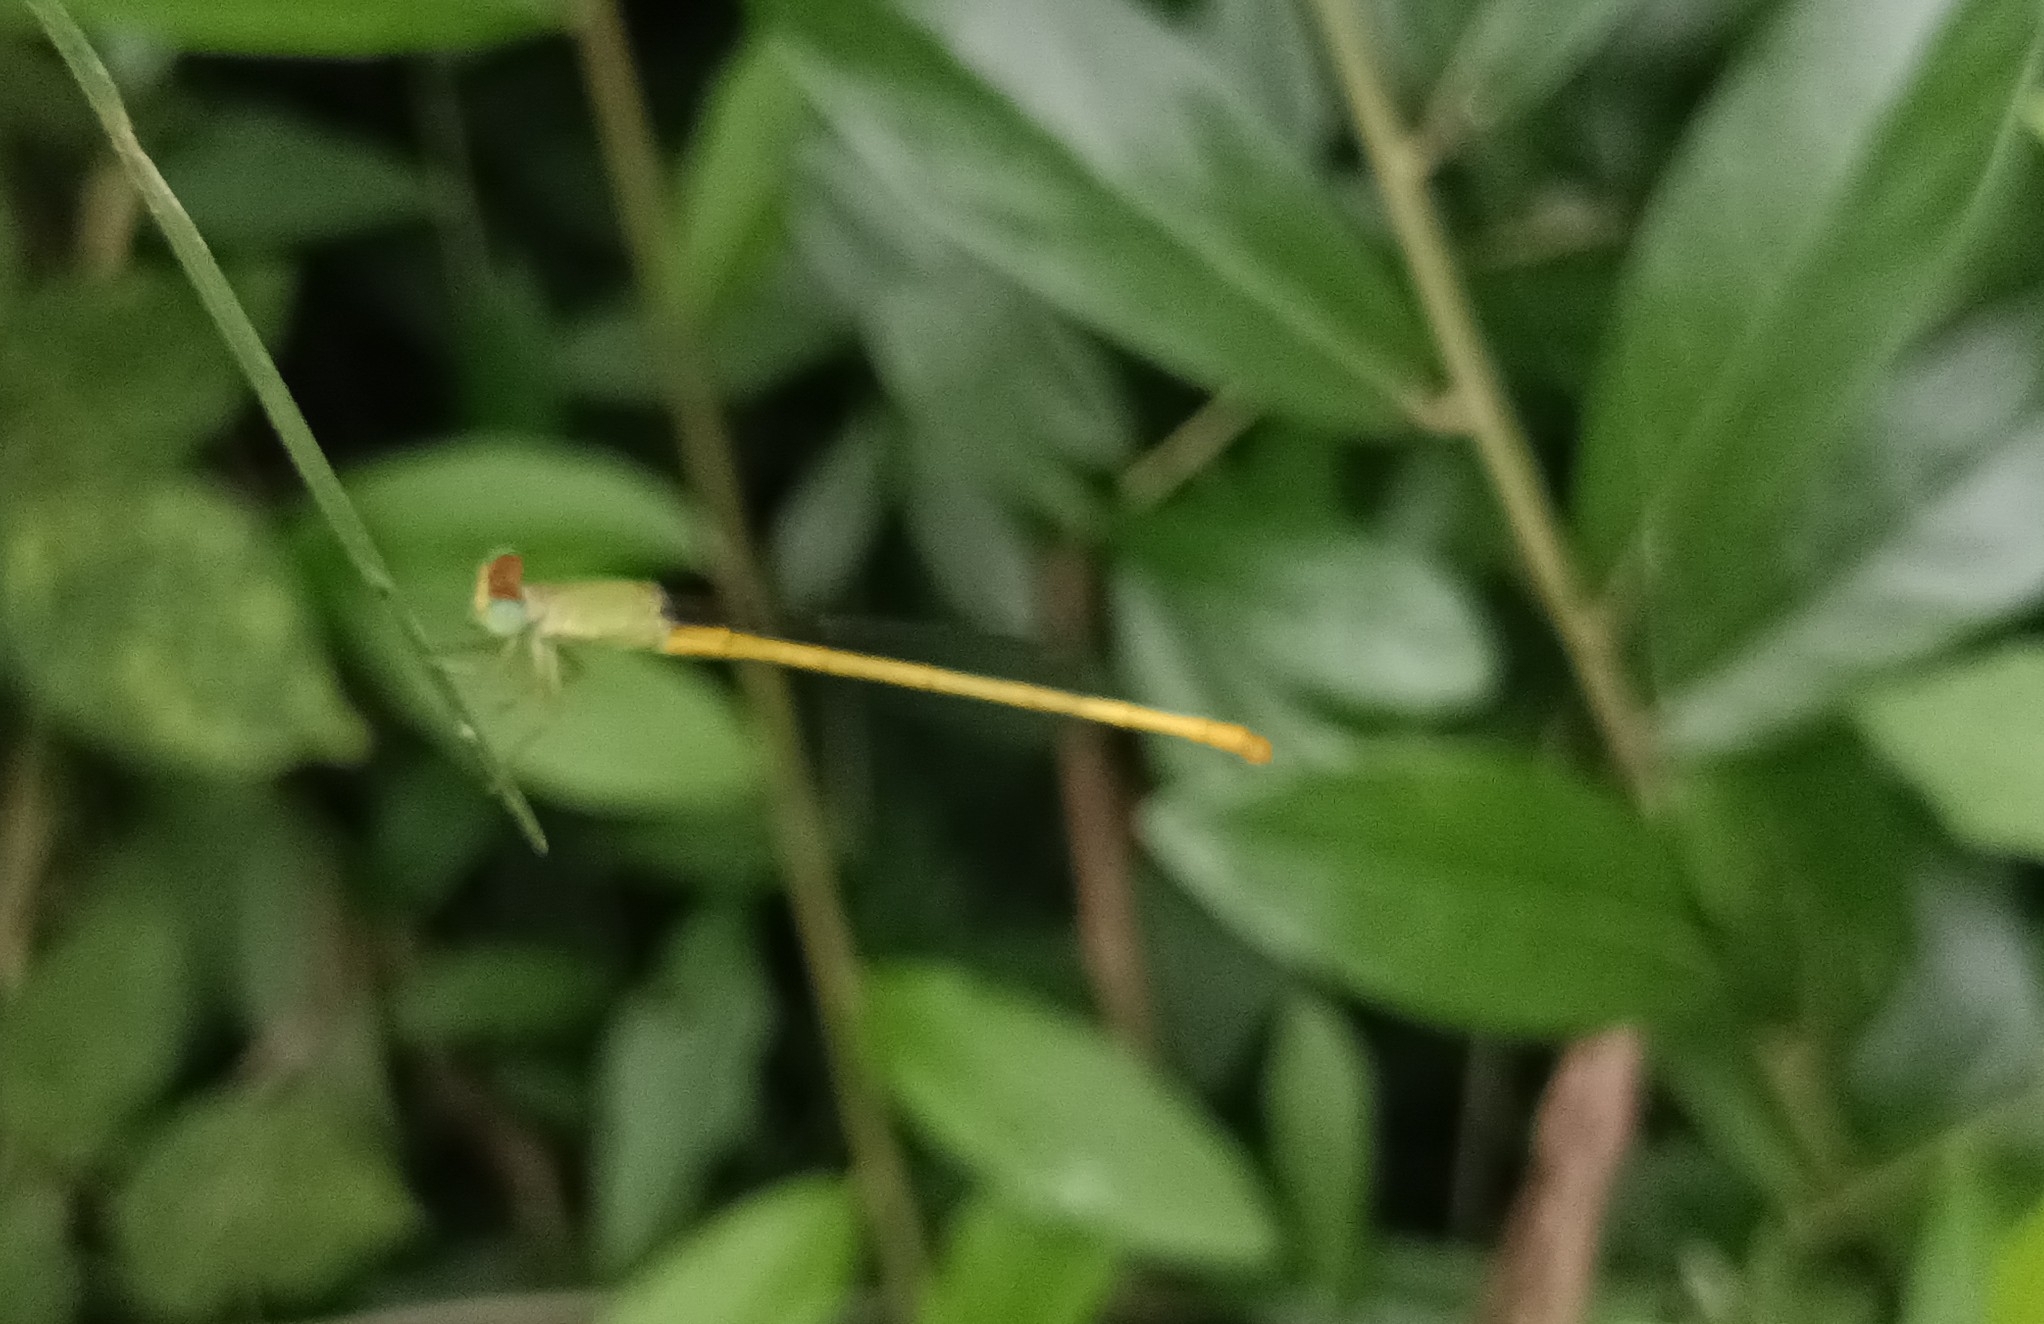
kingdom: Animalia
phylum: Arthropoda
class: Insecta
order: Odonata
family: Coenagrionidae
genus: Ceriagrion
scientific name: Ceriagrion coromandelianum
